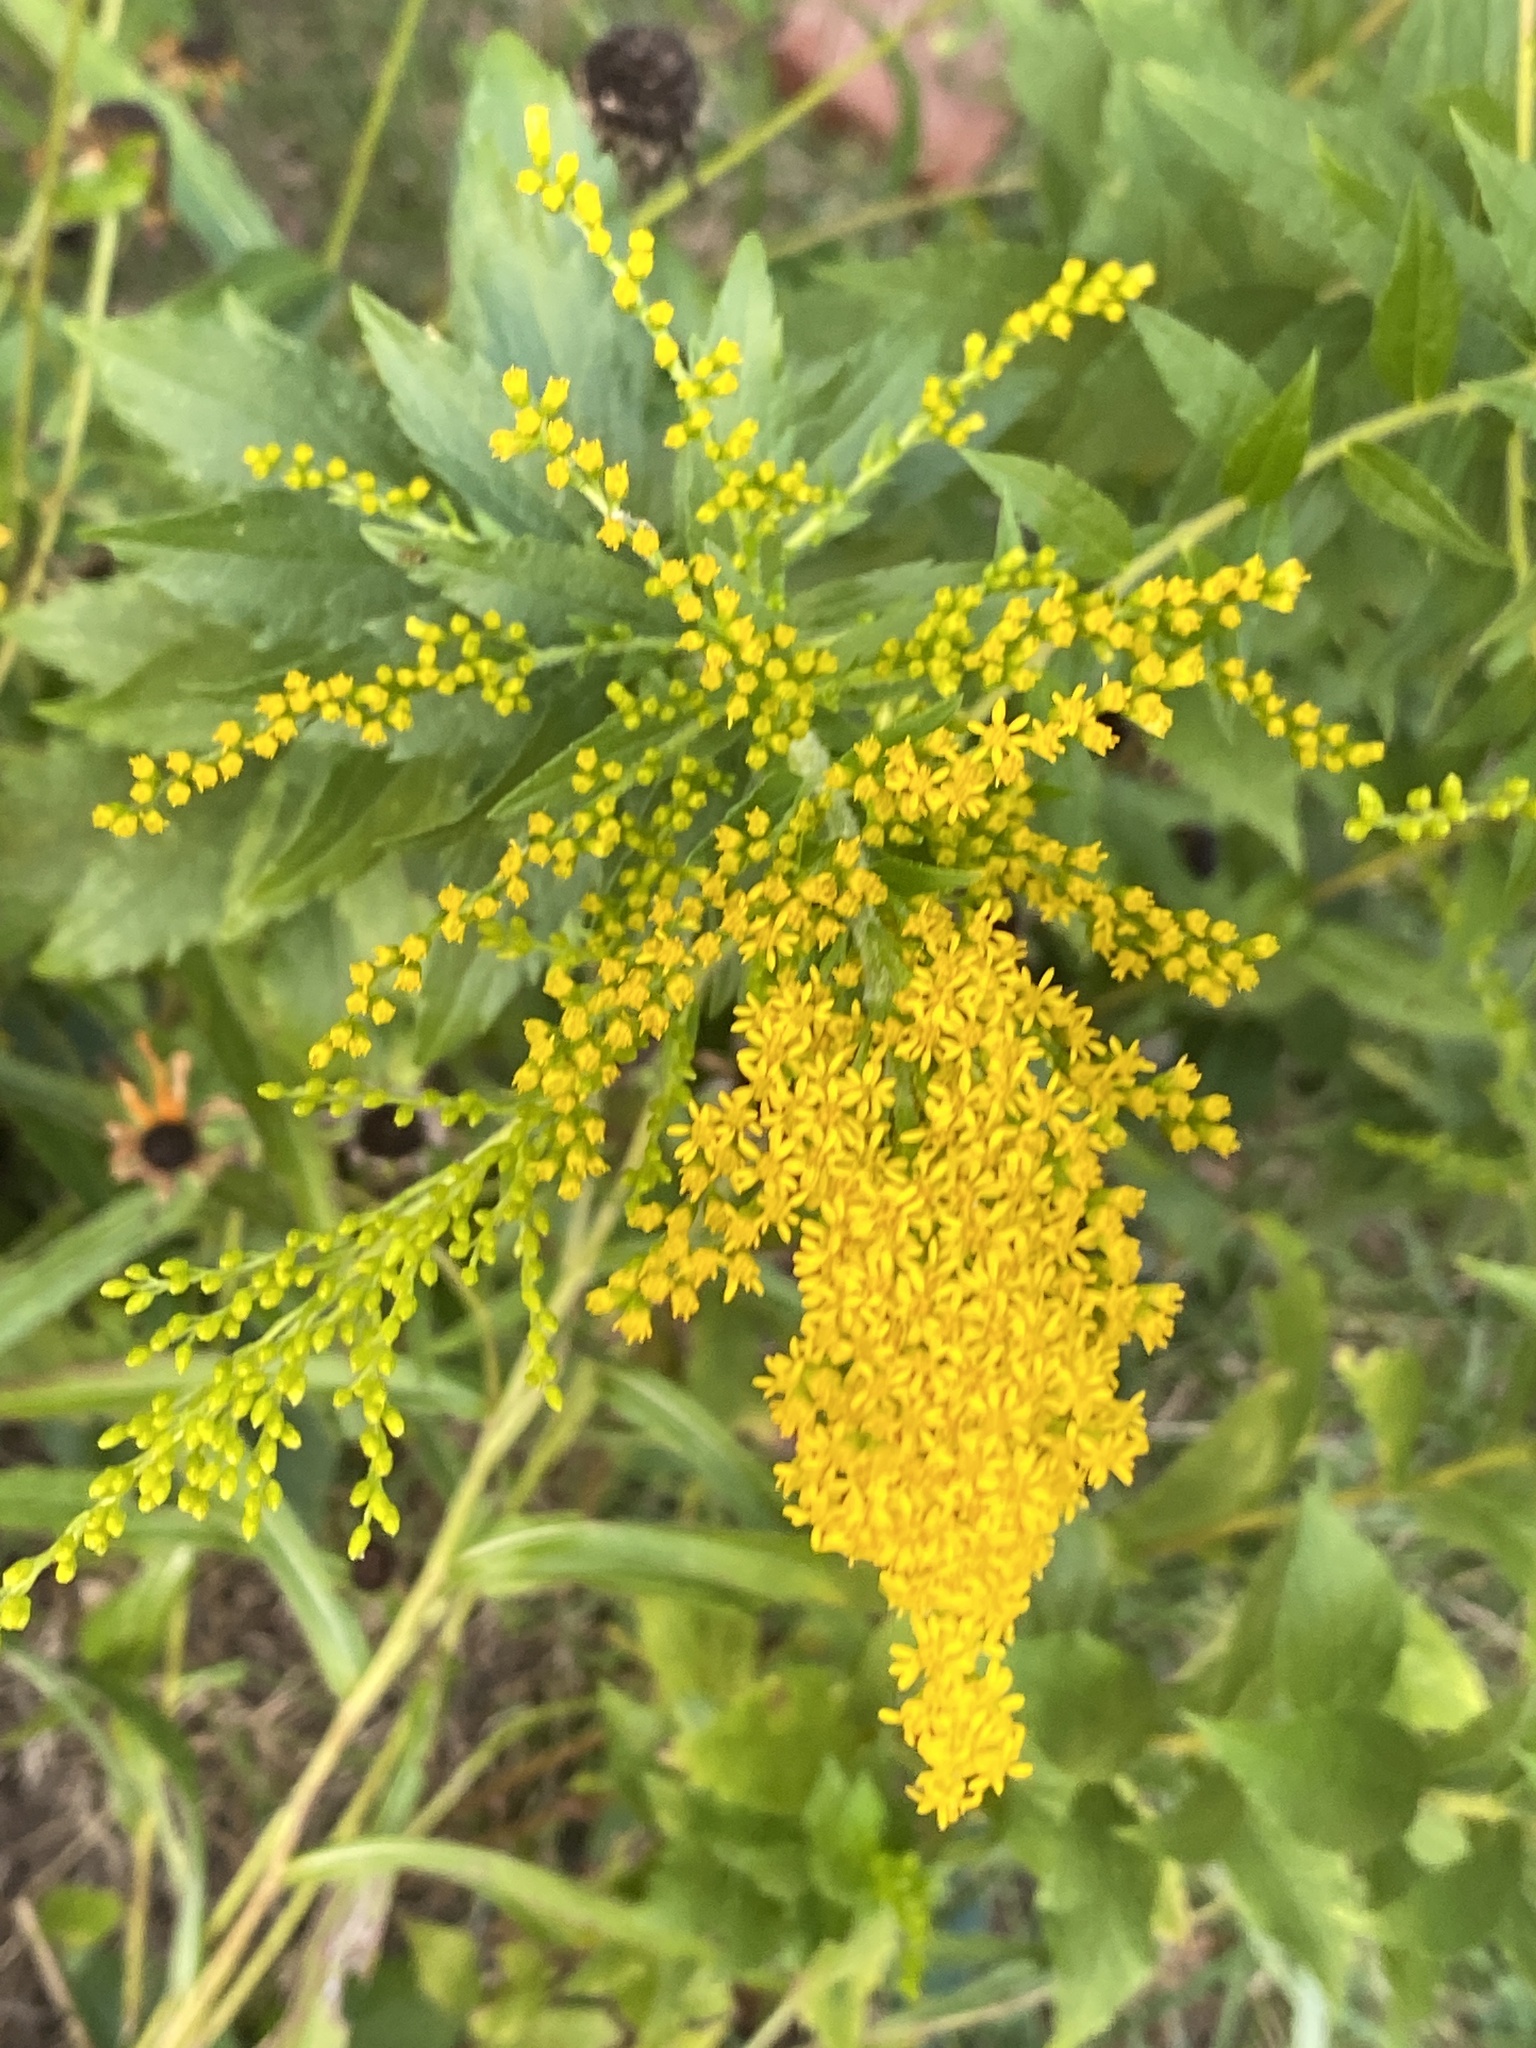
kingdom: Plantae
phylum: Tracheophyta
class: Magnoliopsida
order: Asterales
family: Asteraceae
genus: Solidago
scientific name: Solidago rugosa
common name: Rough-stemmed goldenrod
